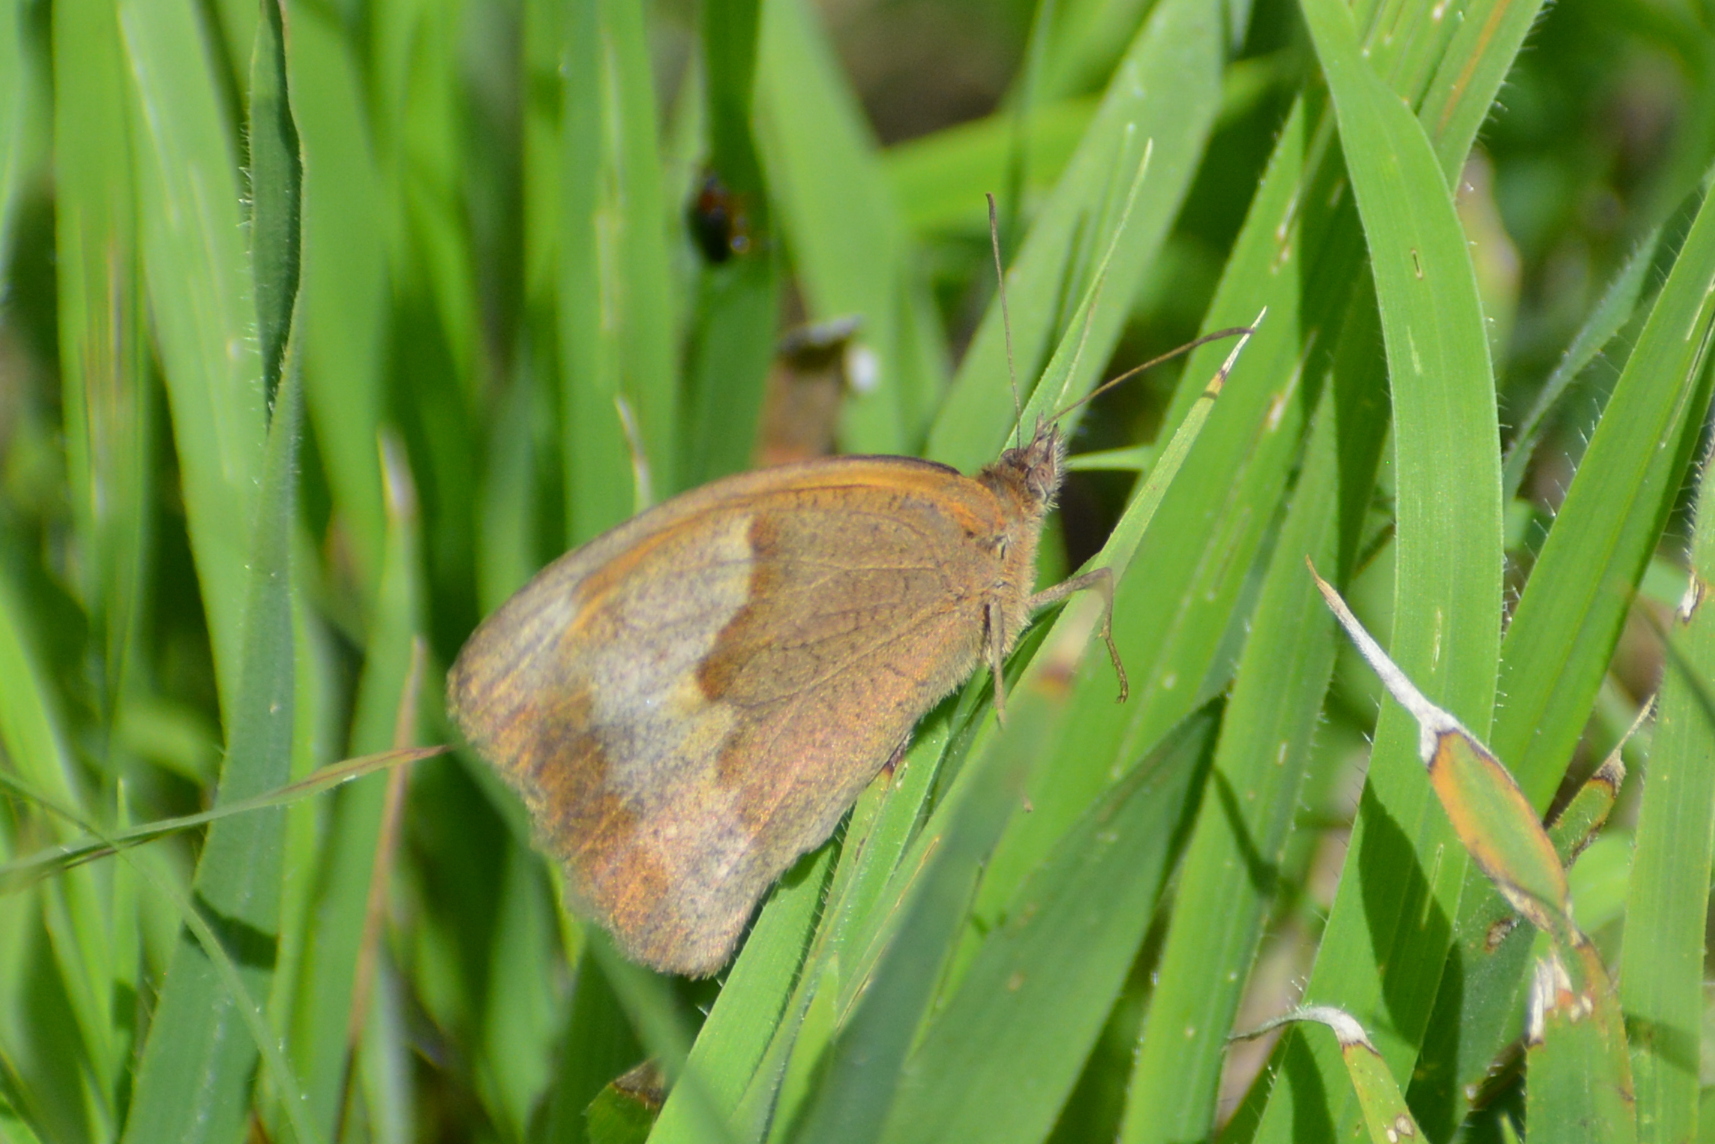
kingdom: Animalia
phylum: Arthropoda
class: Insecta
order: Lepidoptera
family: Nymphalidae
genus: Maniola
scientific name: Maniola jurtina
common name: Meadow brown
